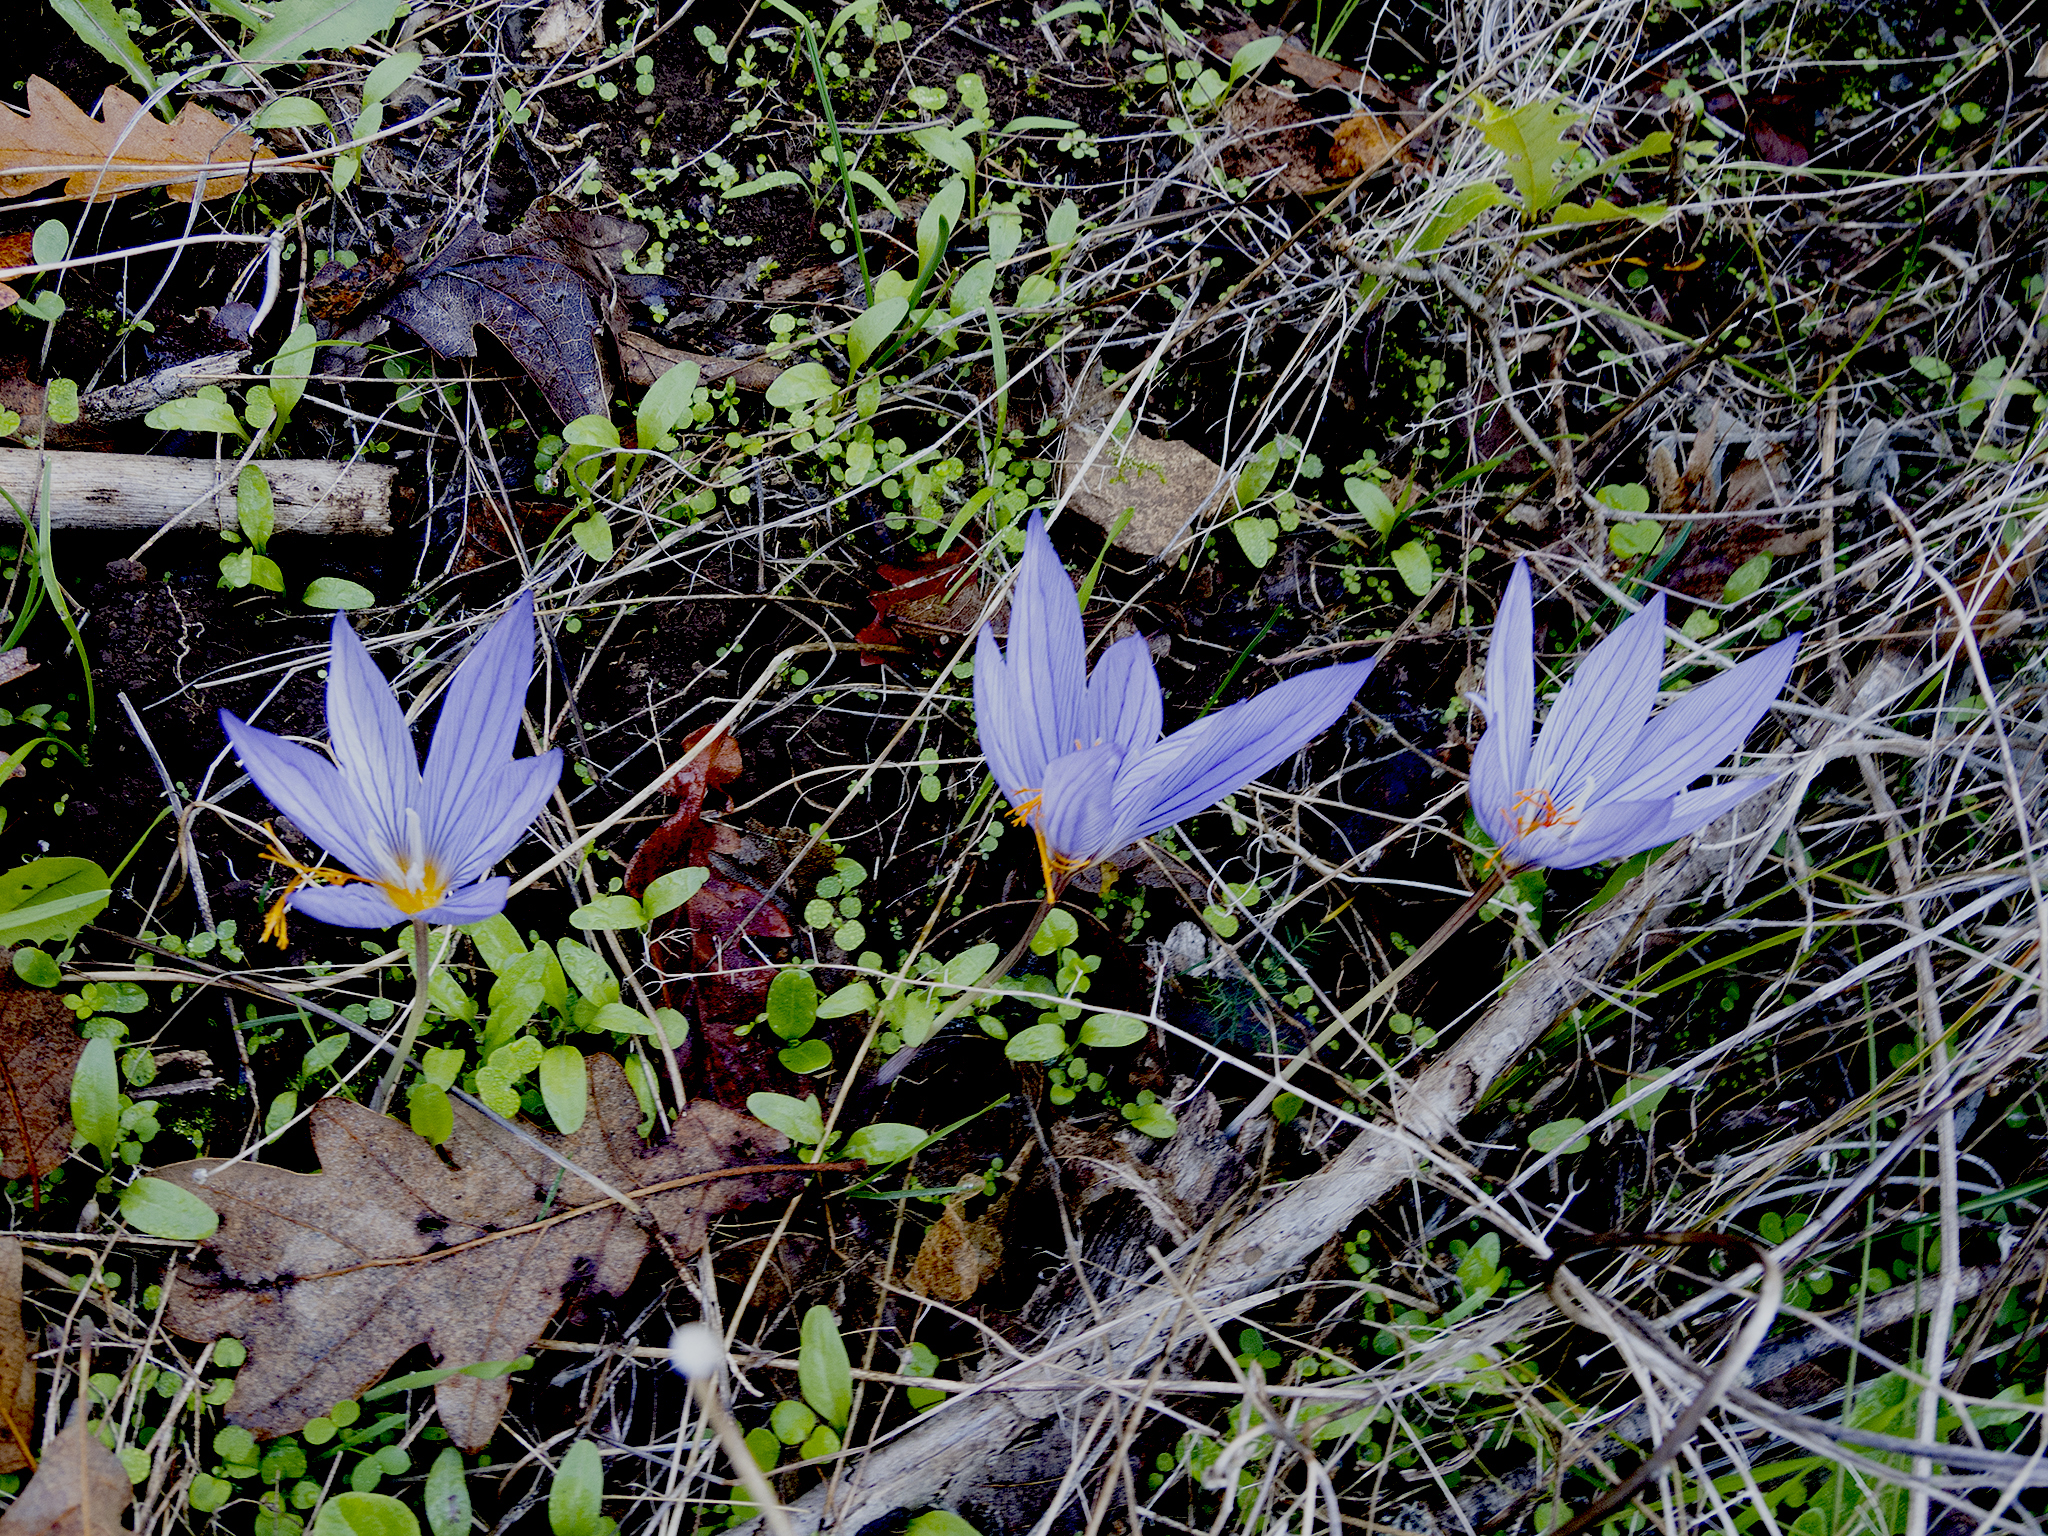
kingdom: Plantae
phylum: Tracheophyta
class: Liliopsida
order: Asparagales
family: Iridaceae
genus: Crocus
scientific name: Crocus ibrahimii
